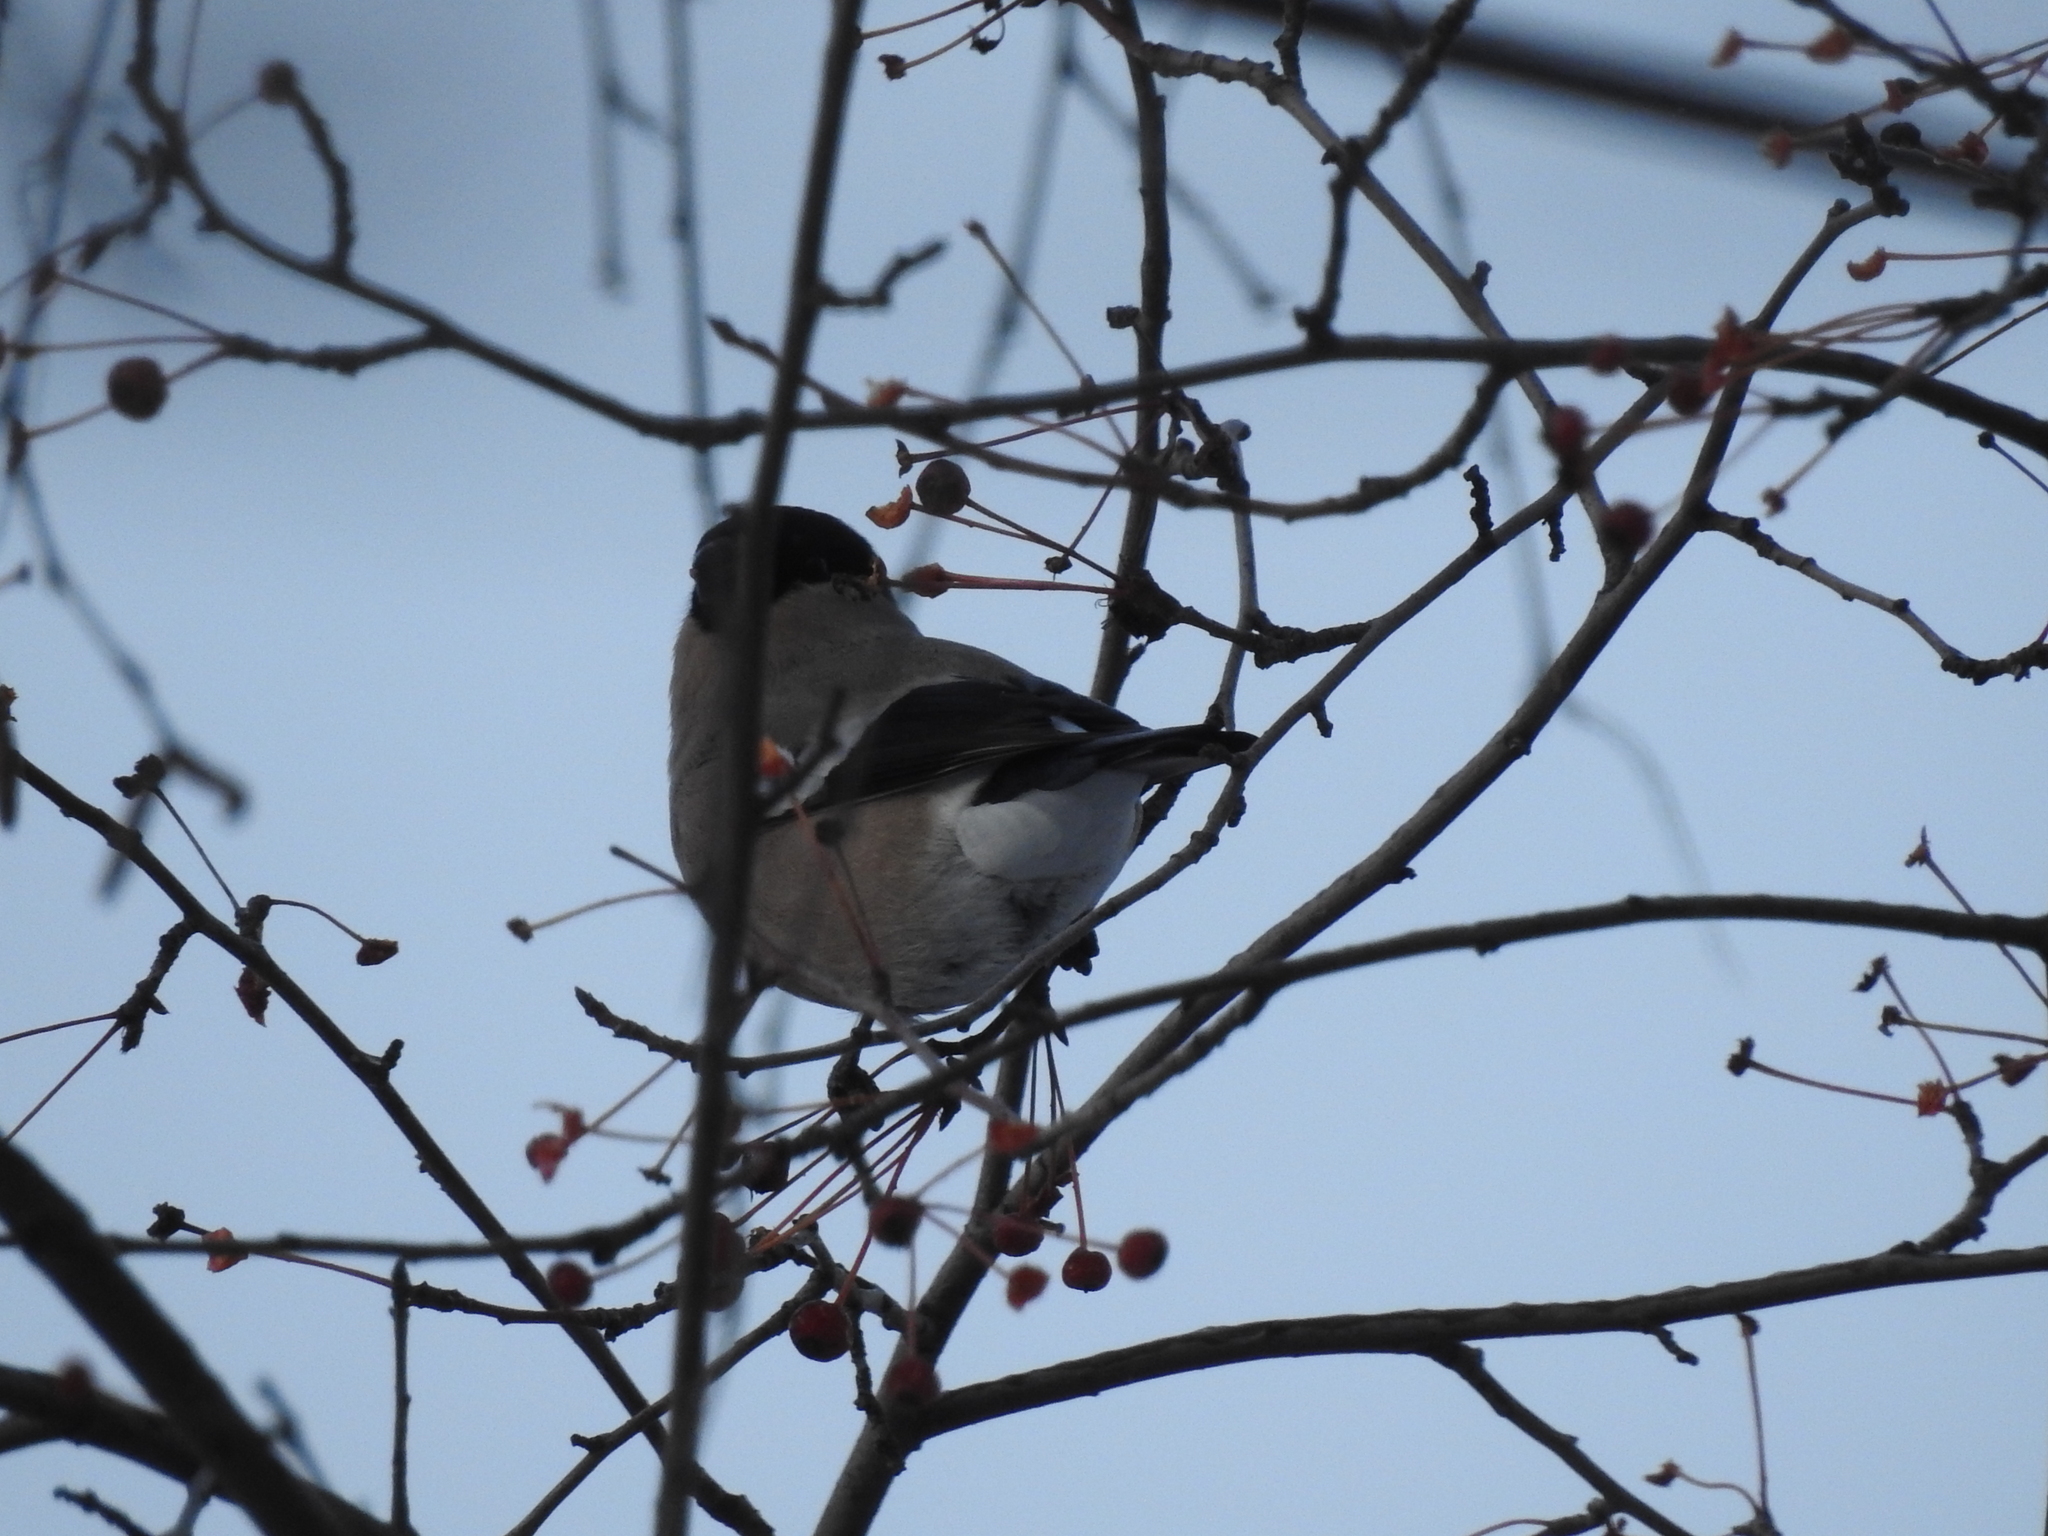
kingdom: Animalia
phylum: Chordata
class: Aves
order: Passeriformes
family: Fringillidae
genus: Pyrrhula
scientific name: Pyrrhula pyrrhula
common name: Eurasian bullfinch
